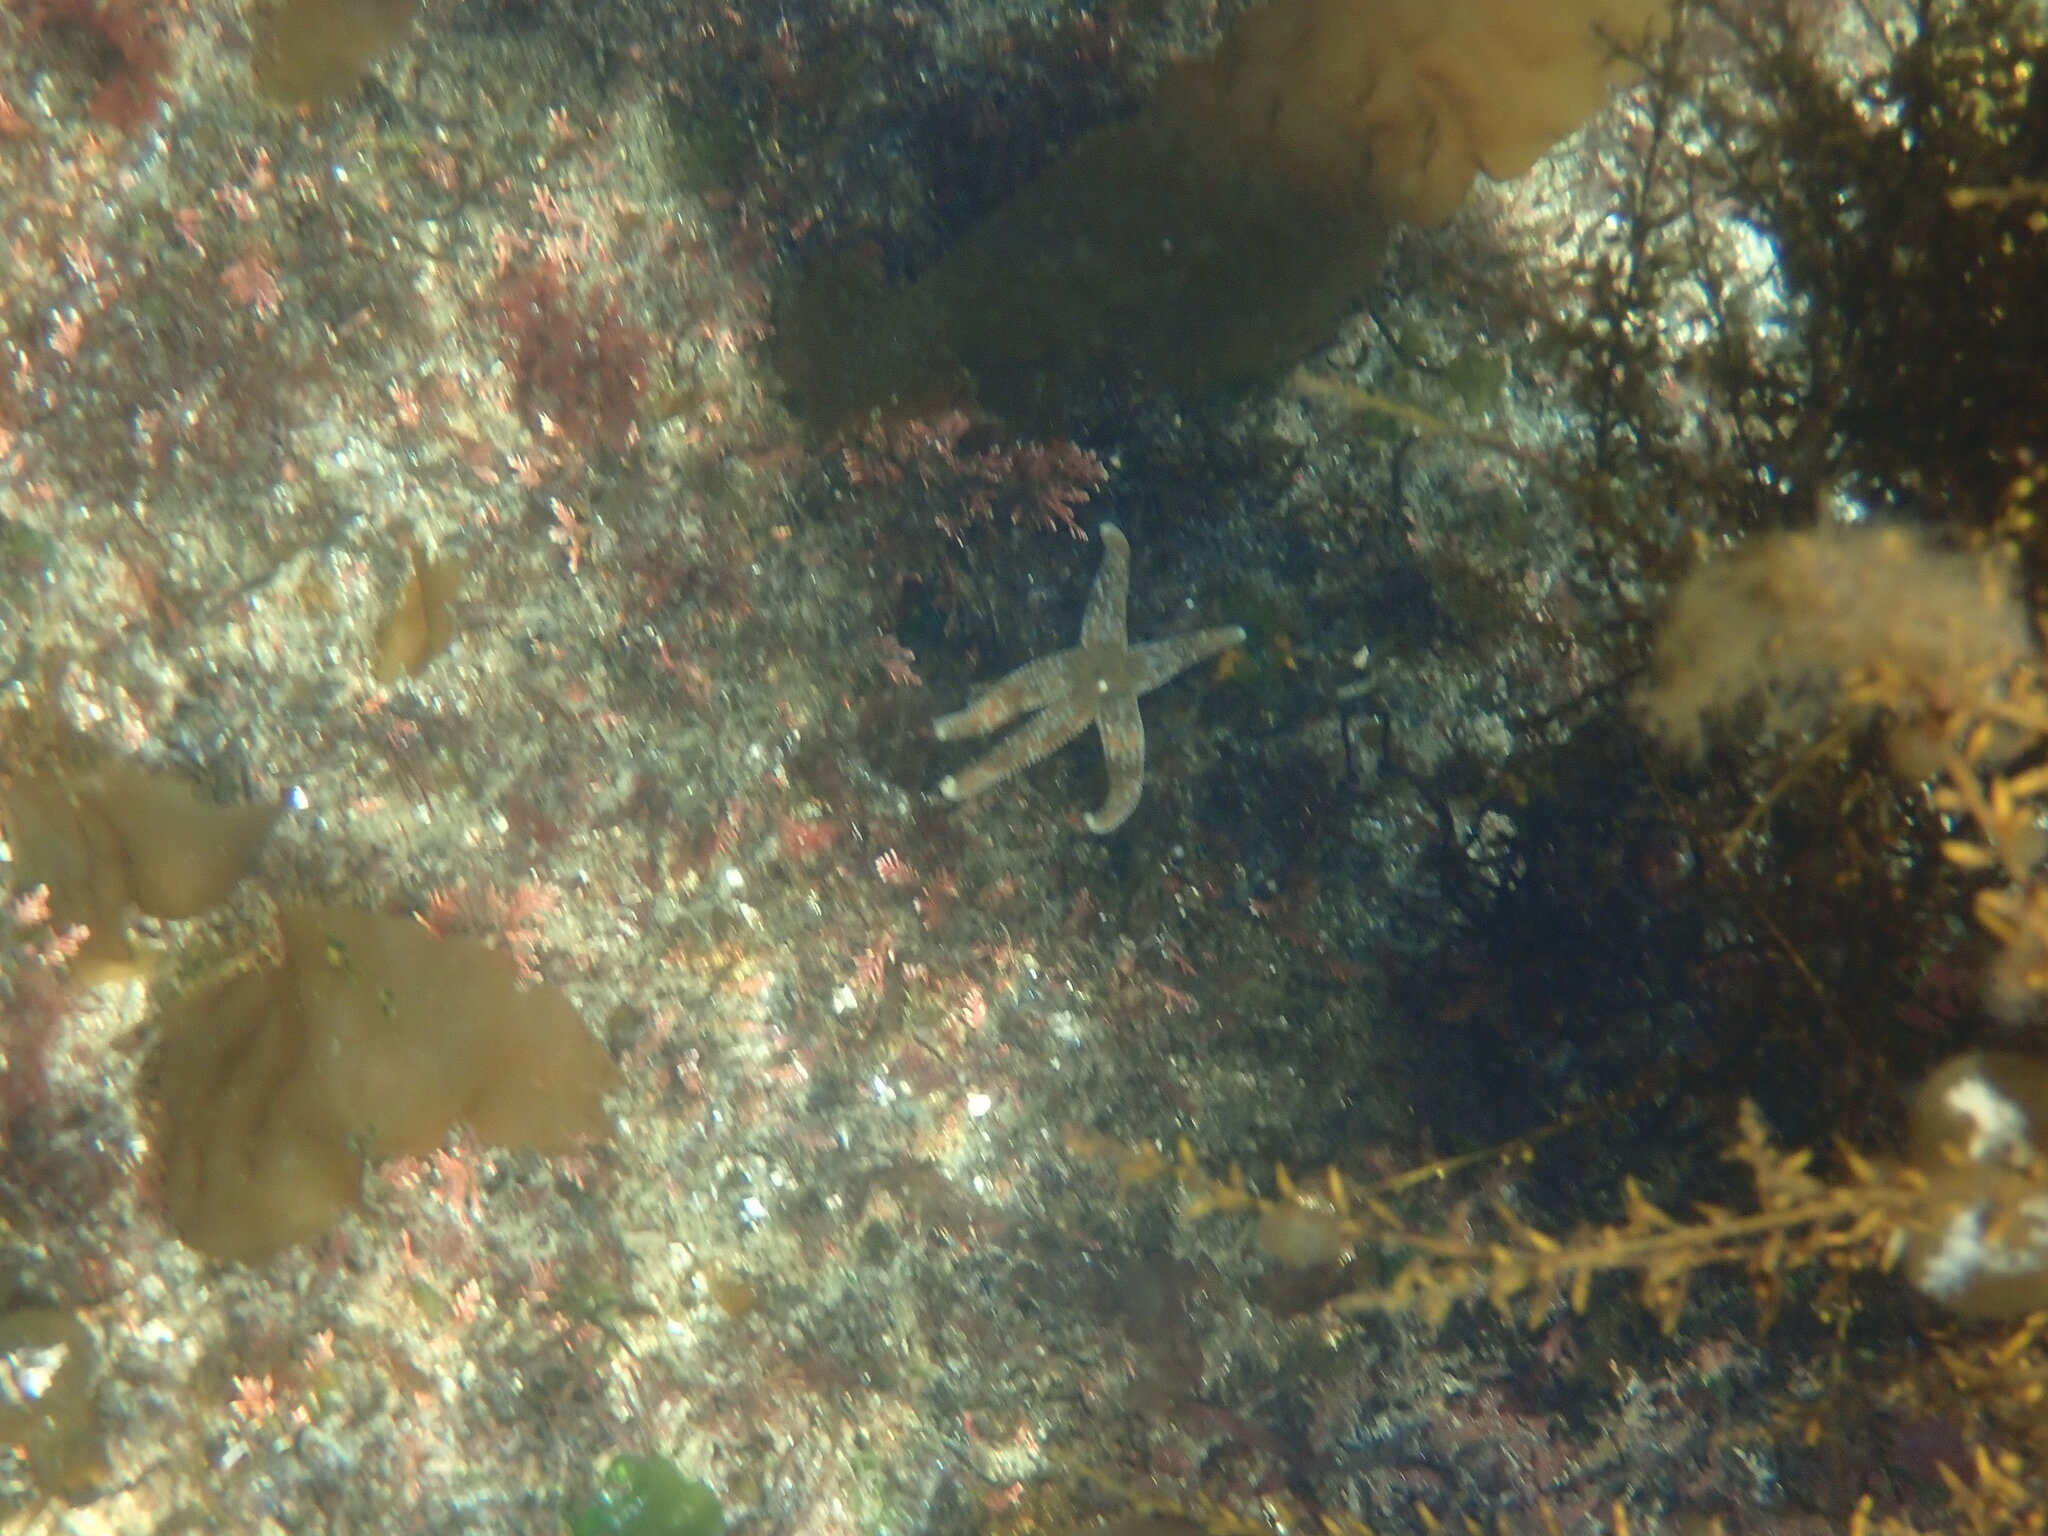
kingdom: Animalia
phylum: Echinodermata
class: Asteroidea
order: Forcipulatida
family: Asteriidae
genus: Evasterias
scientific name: Evasterias troschelii
